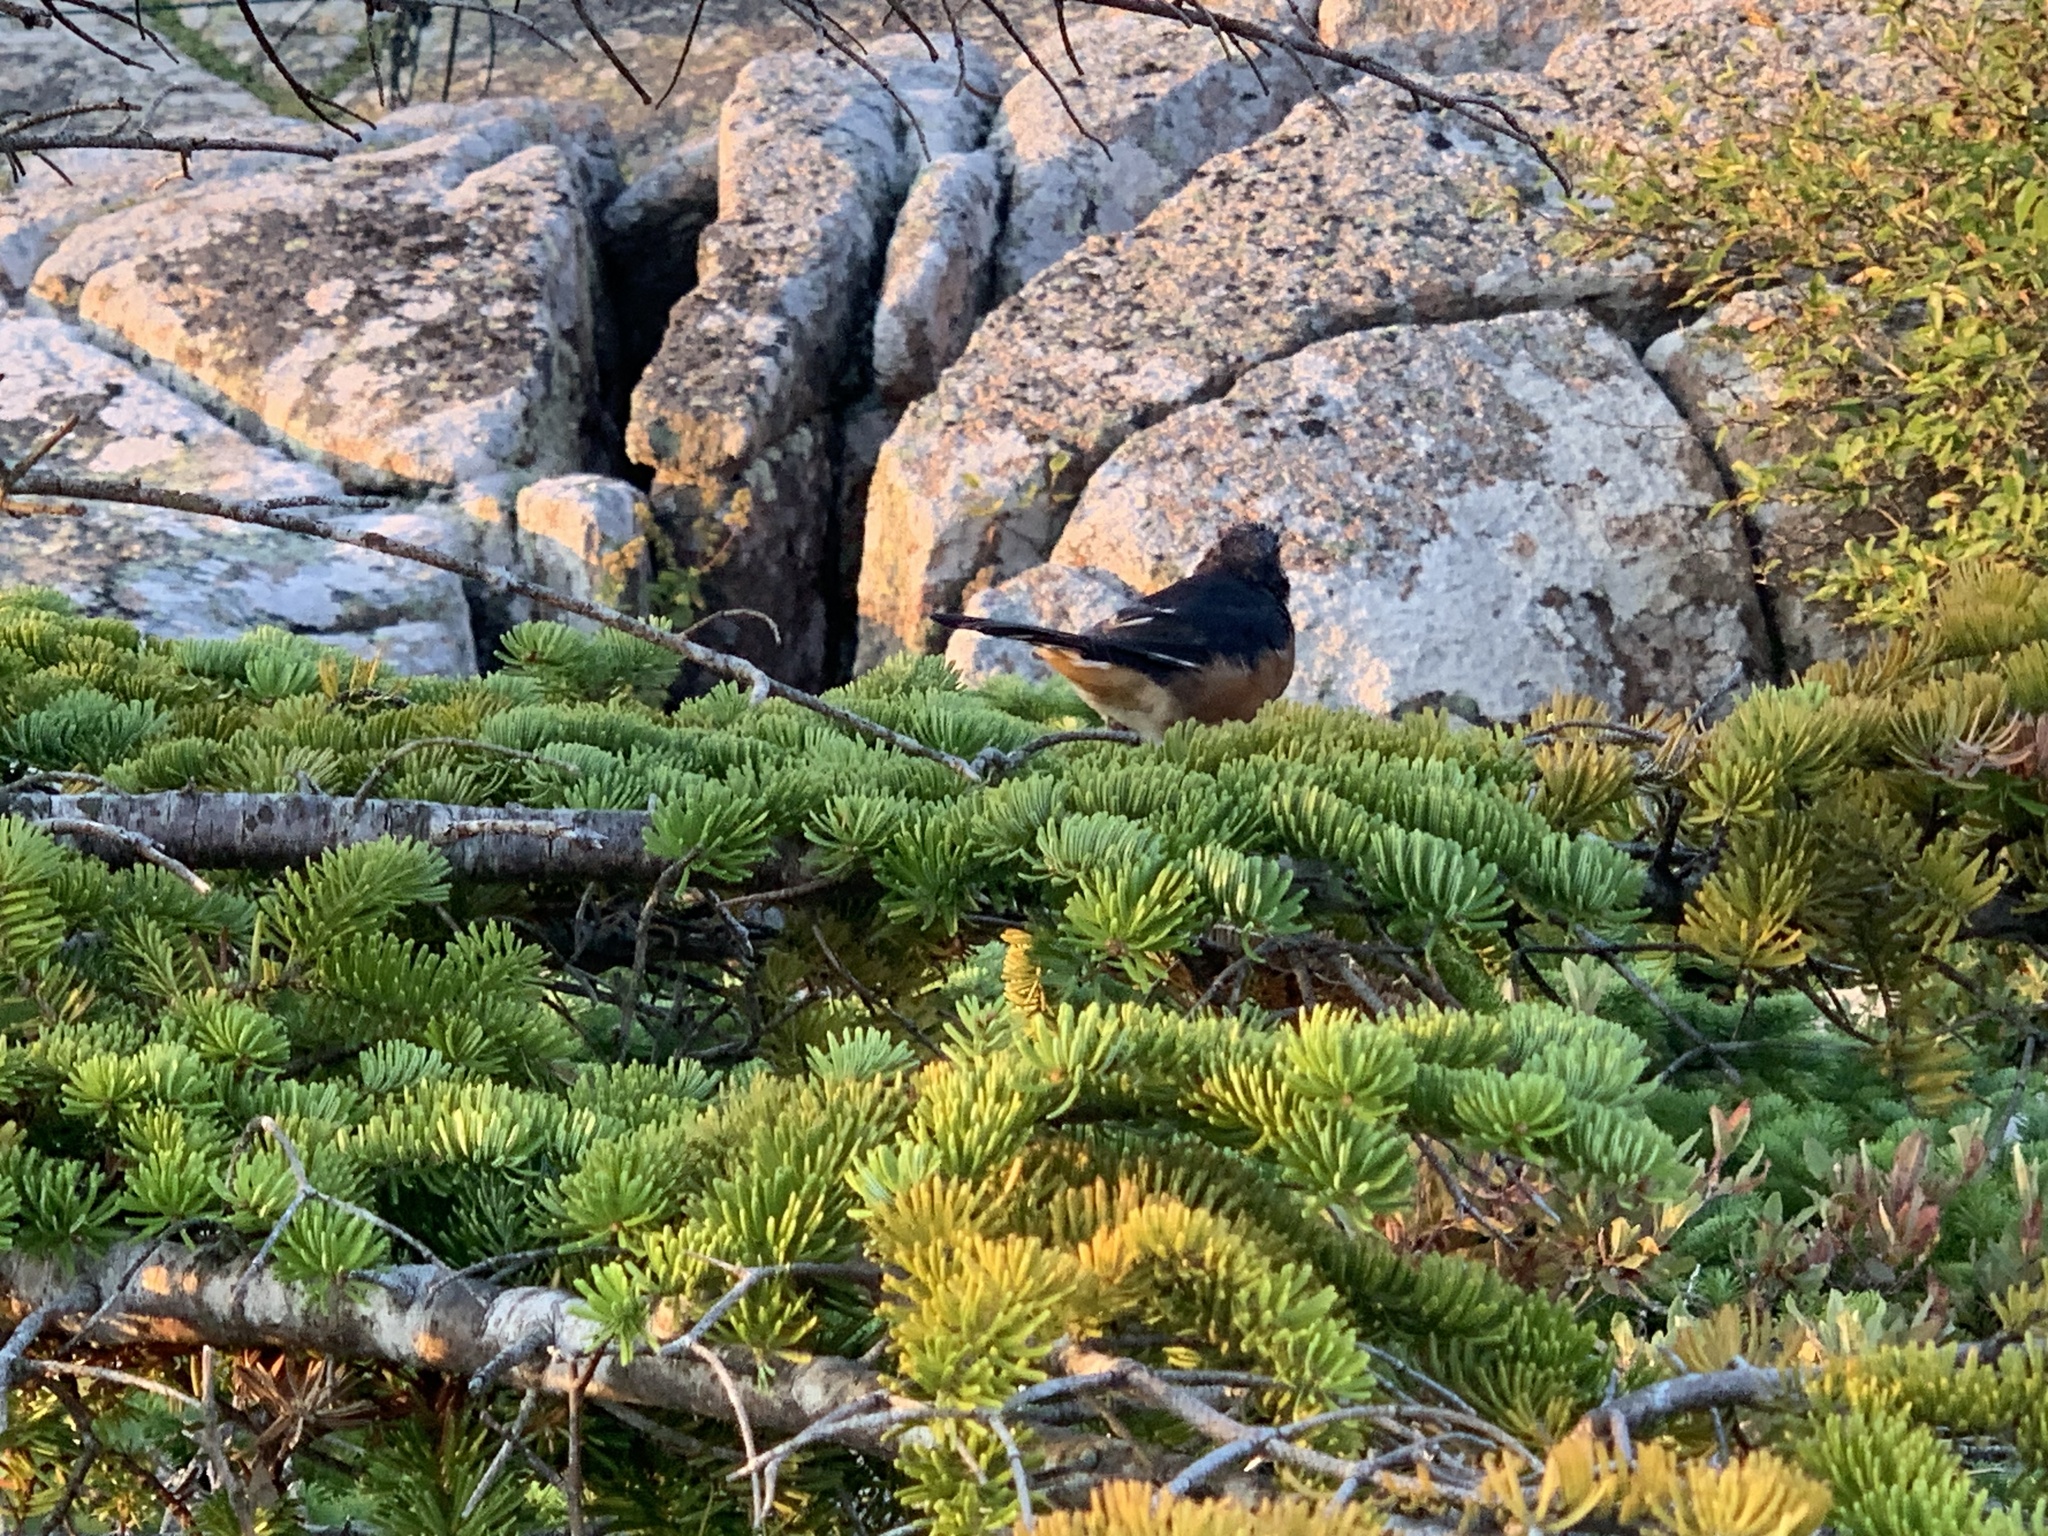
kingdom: Animalia
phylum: Chordata
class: Aves
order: Passeriformes
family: Passerellidae
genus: Pipilo
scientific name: Pipilo erythrophthalmus
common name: Eastern towhee
